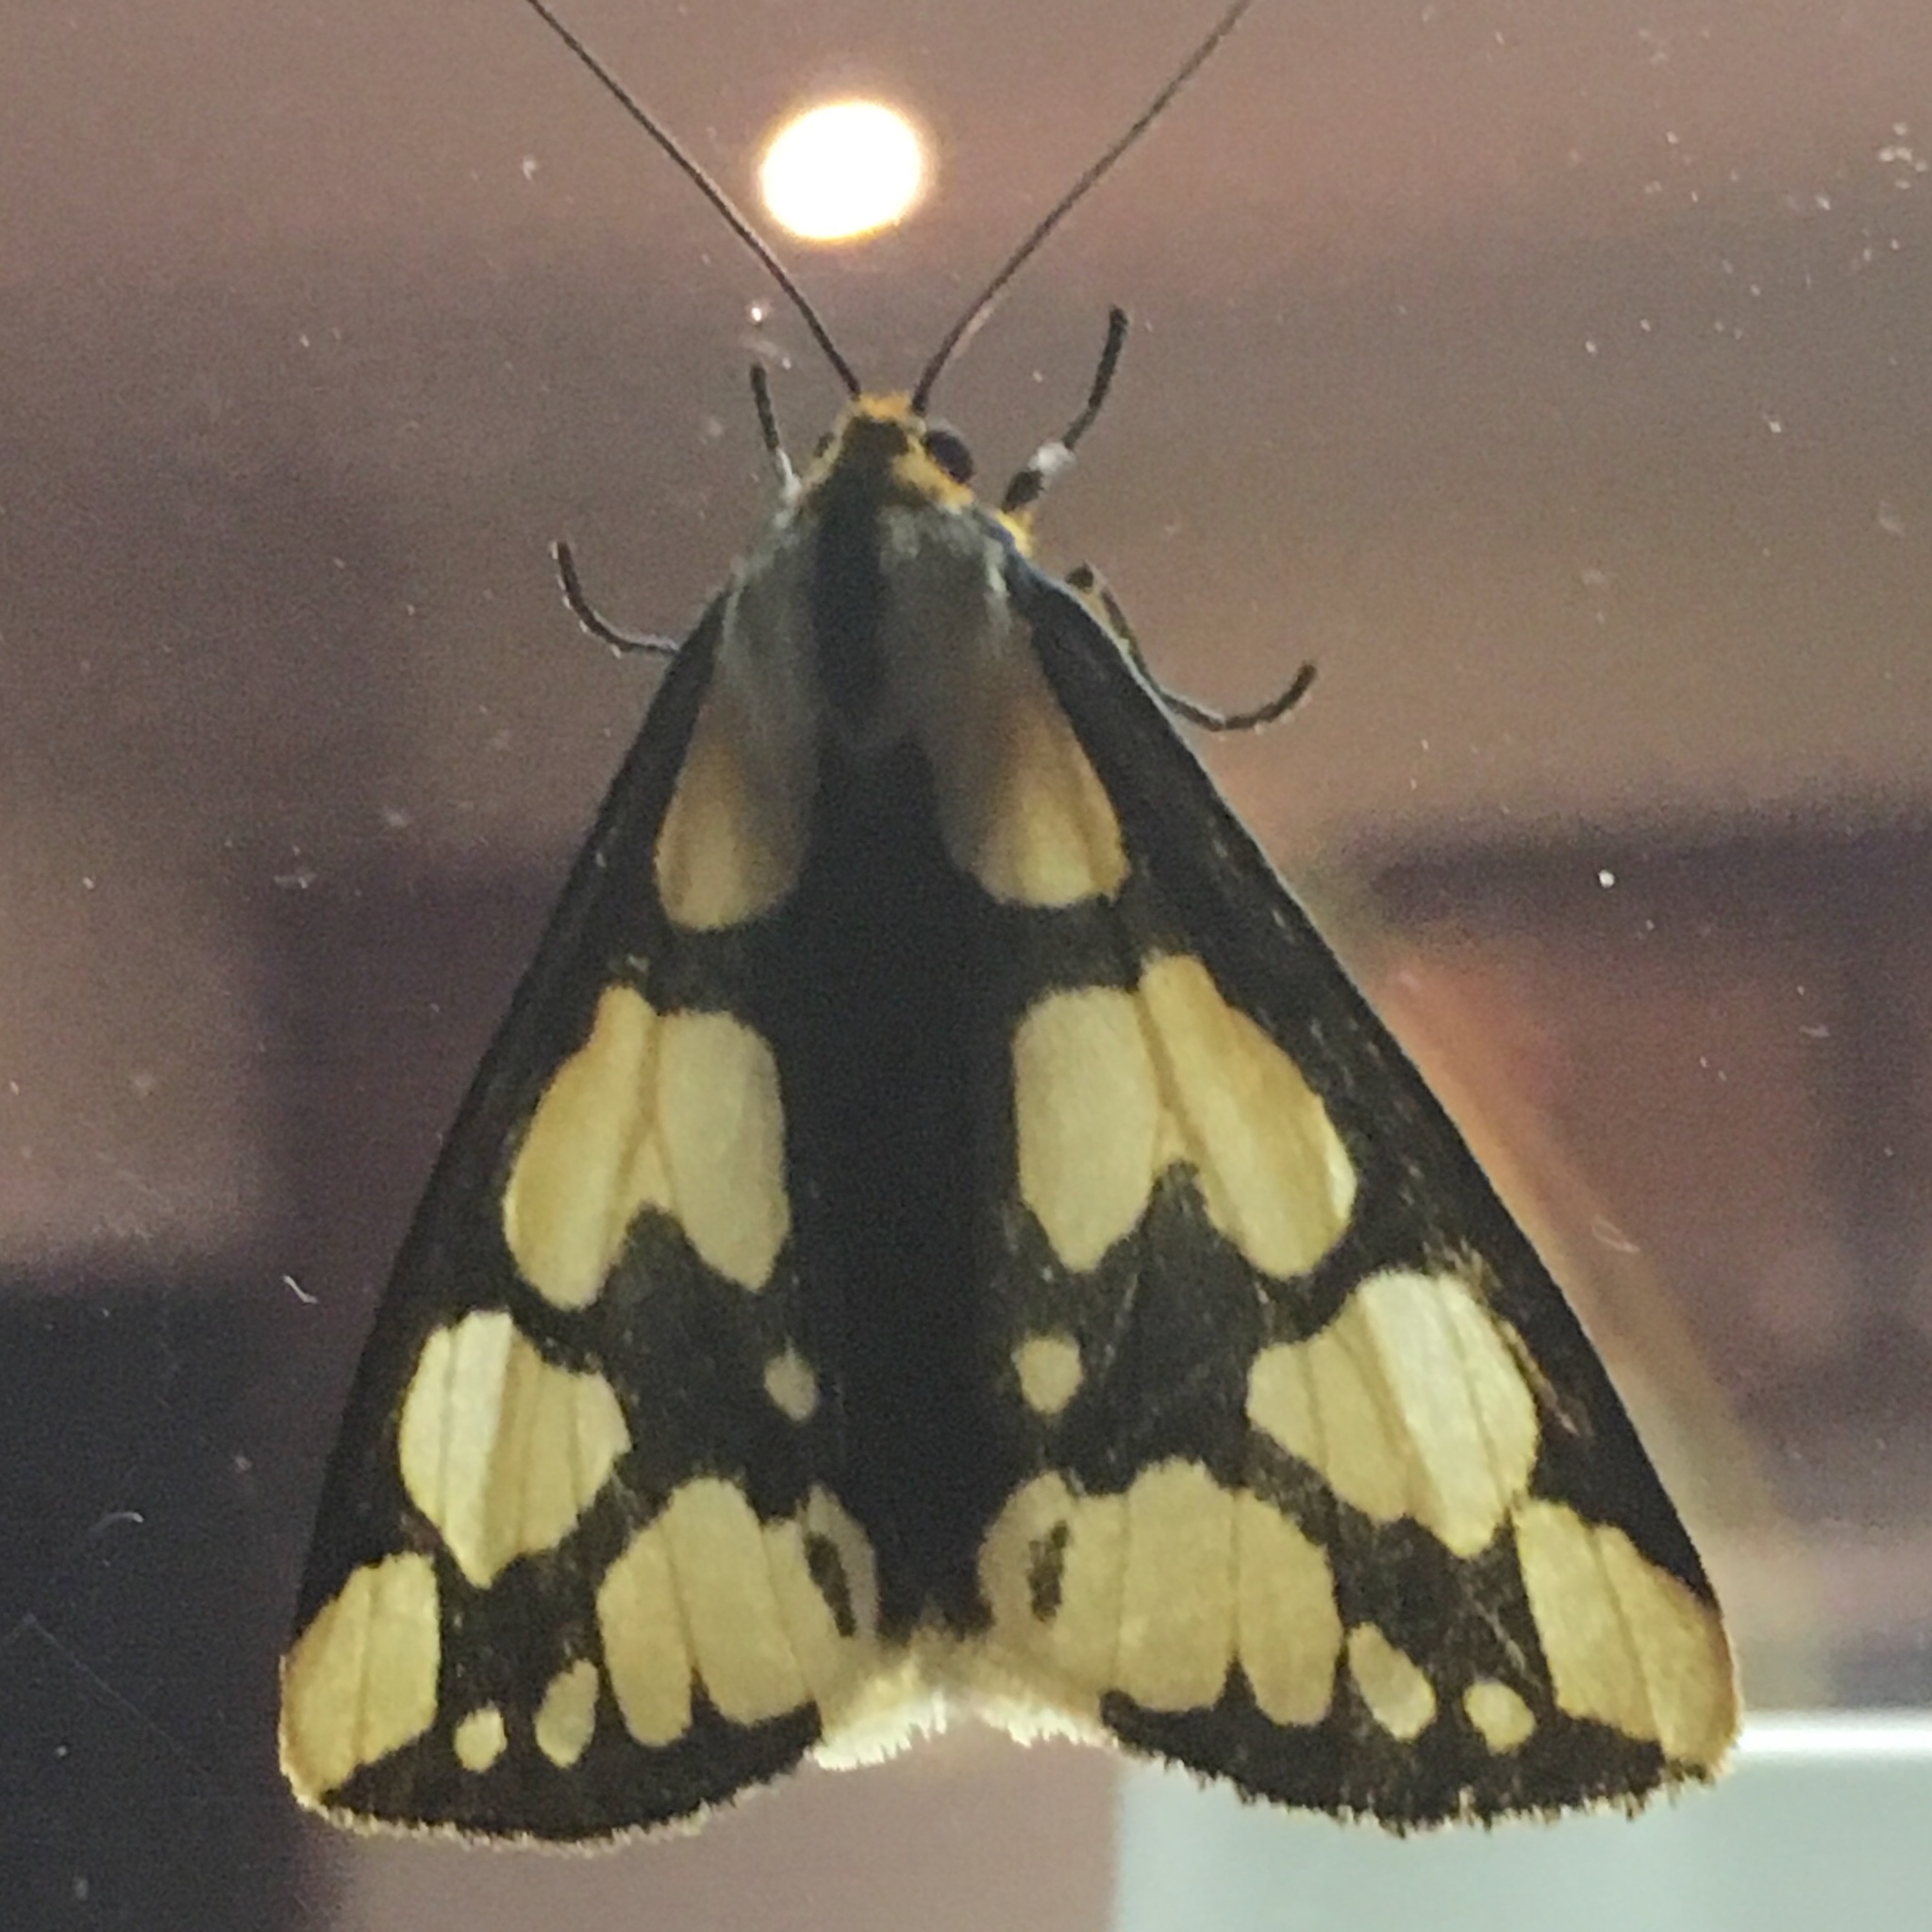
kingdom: Animalia
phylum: Arthropoda
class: Insecta
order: Lepidoptera
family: Erebidae
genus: Haploa
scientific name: Haploa confusa
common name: Confused haploa moth
